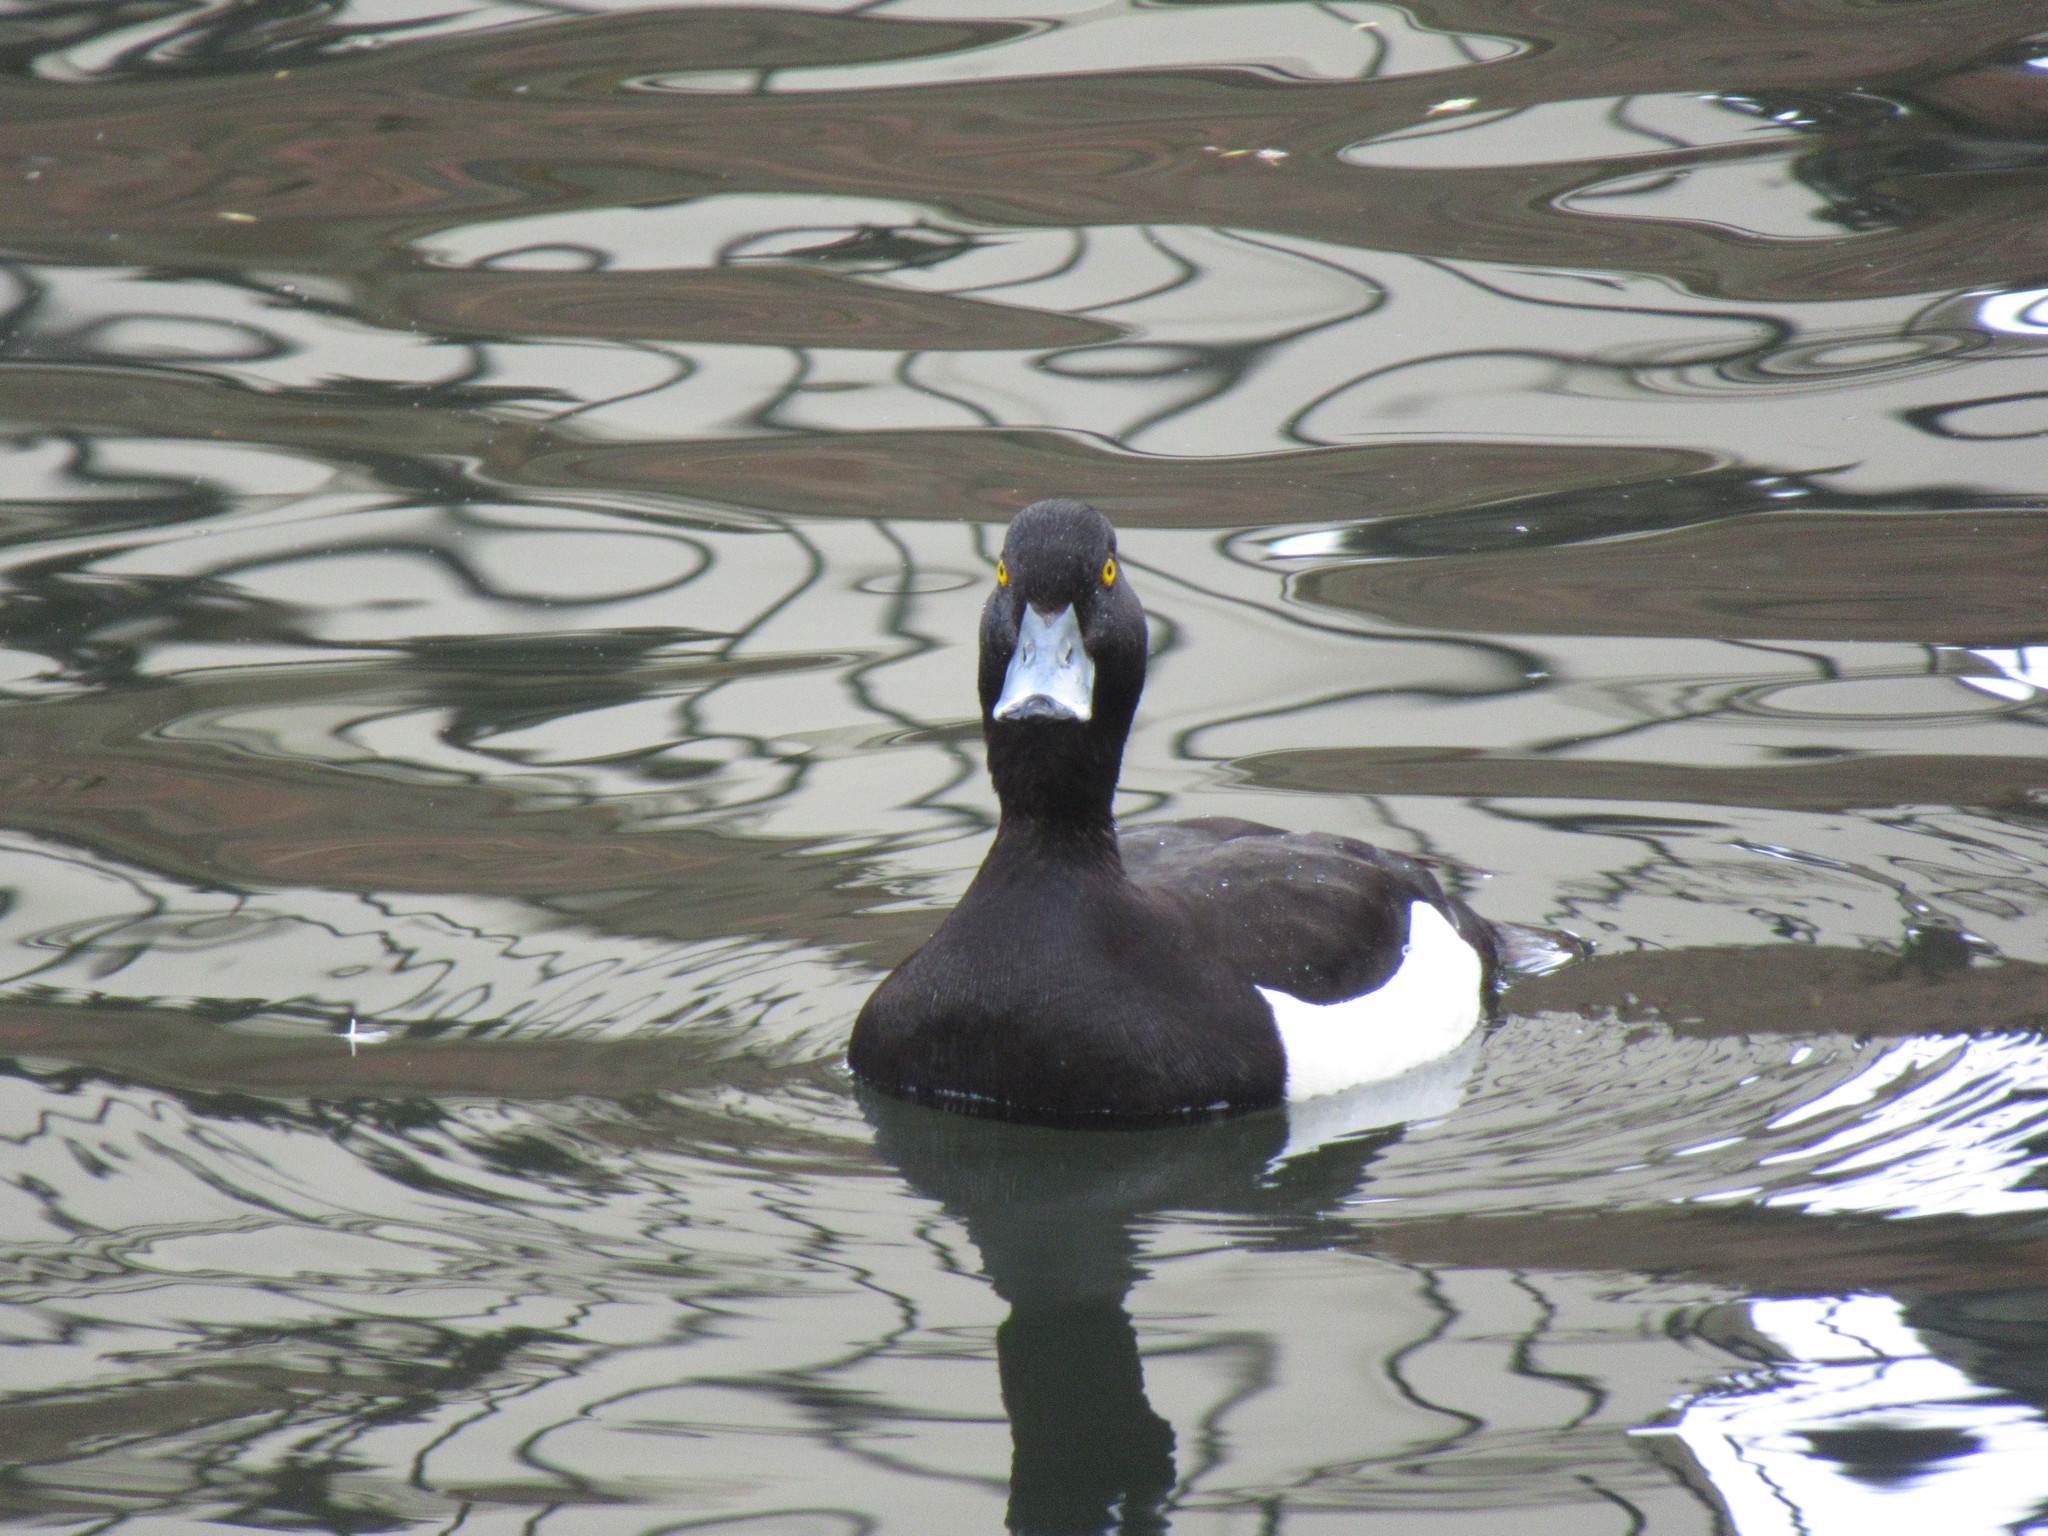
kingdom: Animalia
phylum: Chordata
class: Aves
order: Anseriformes
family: Anatidae
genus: Aythya
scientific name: Aythya fuligula
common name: Tufted duck
